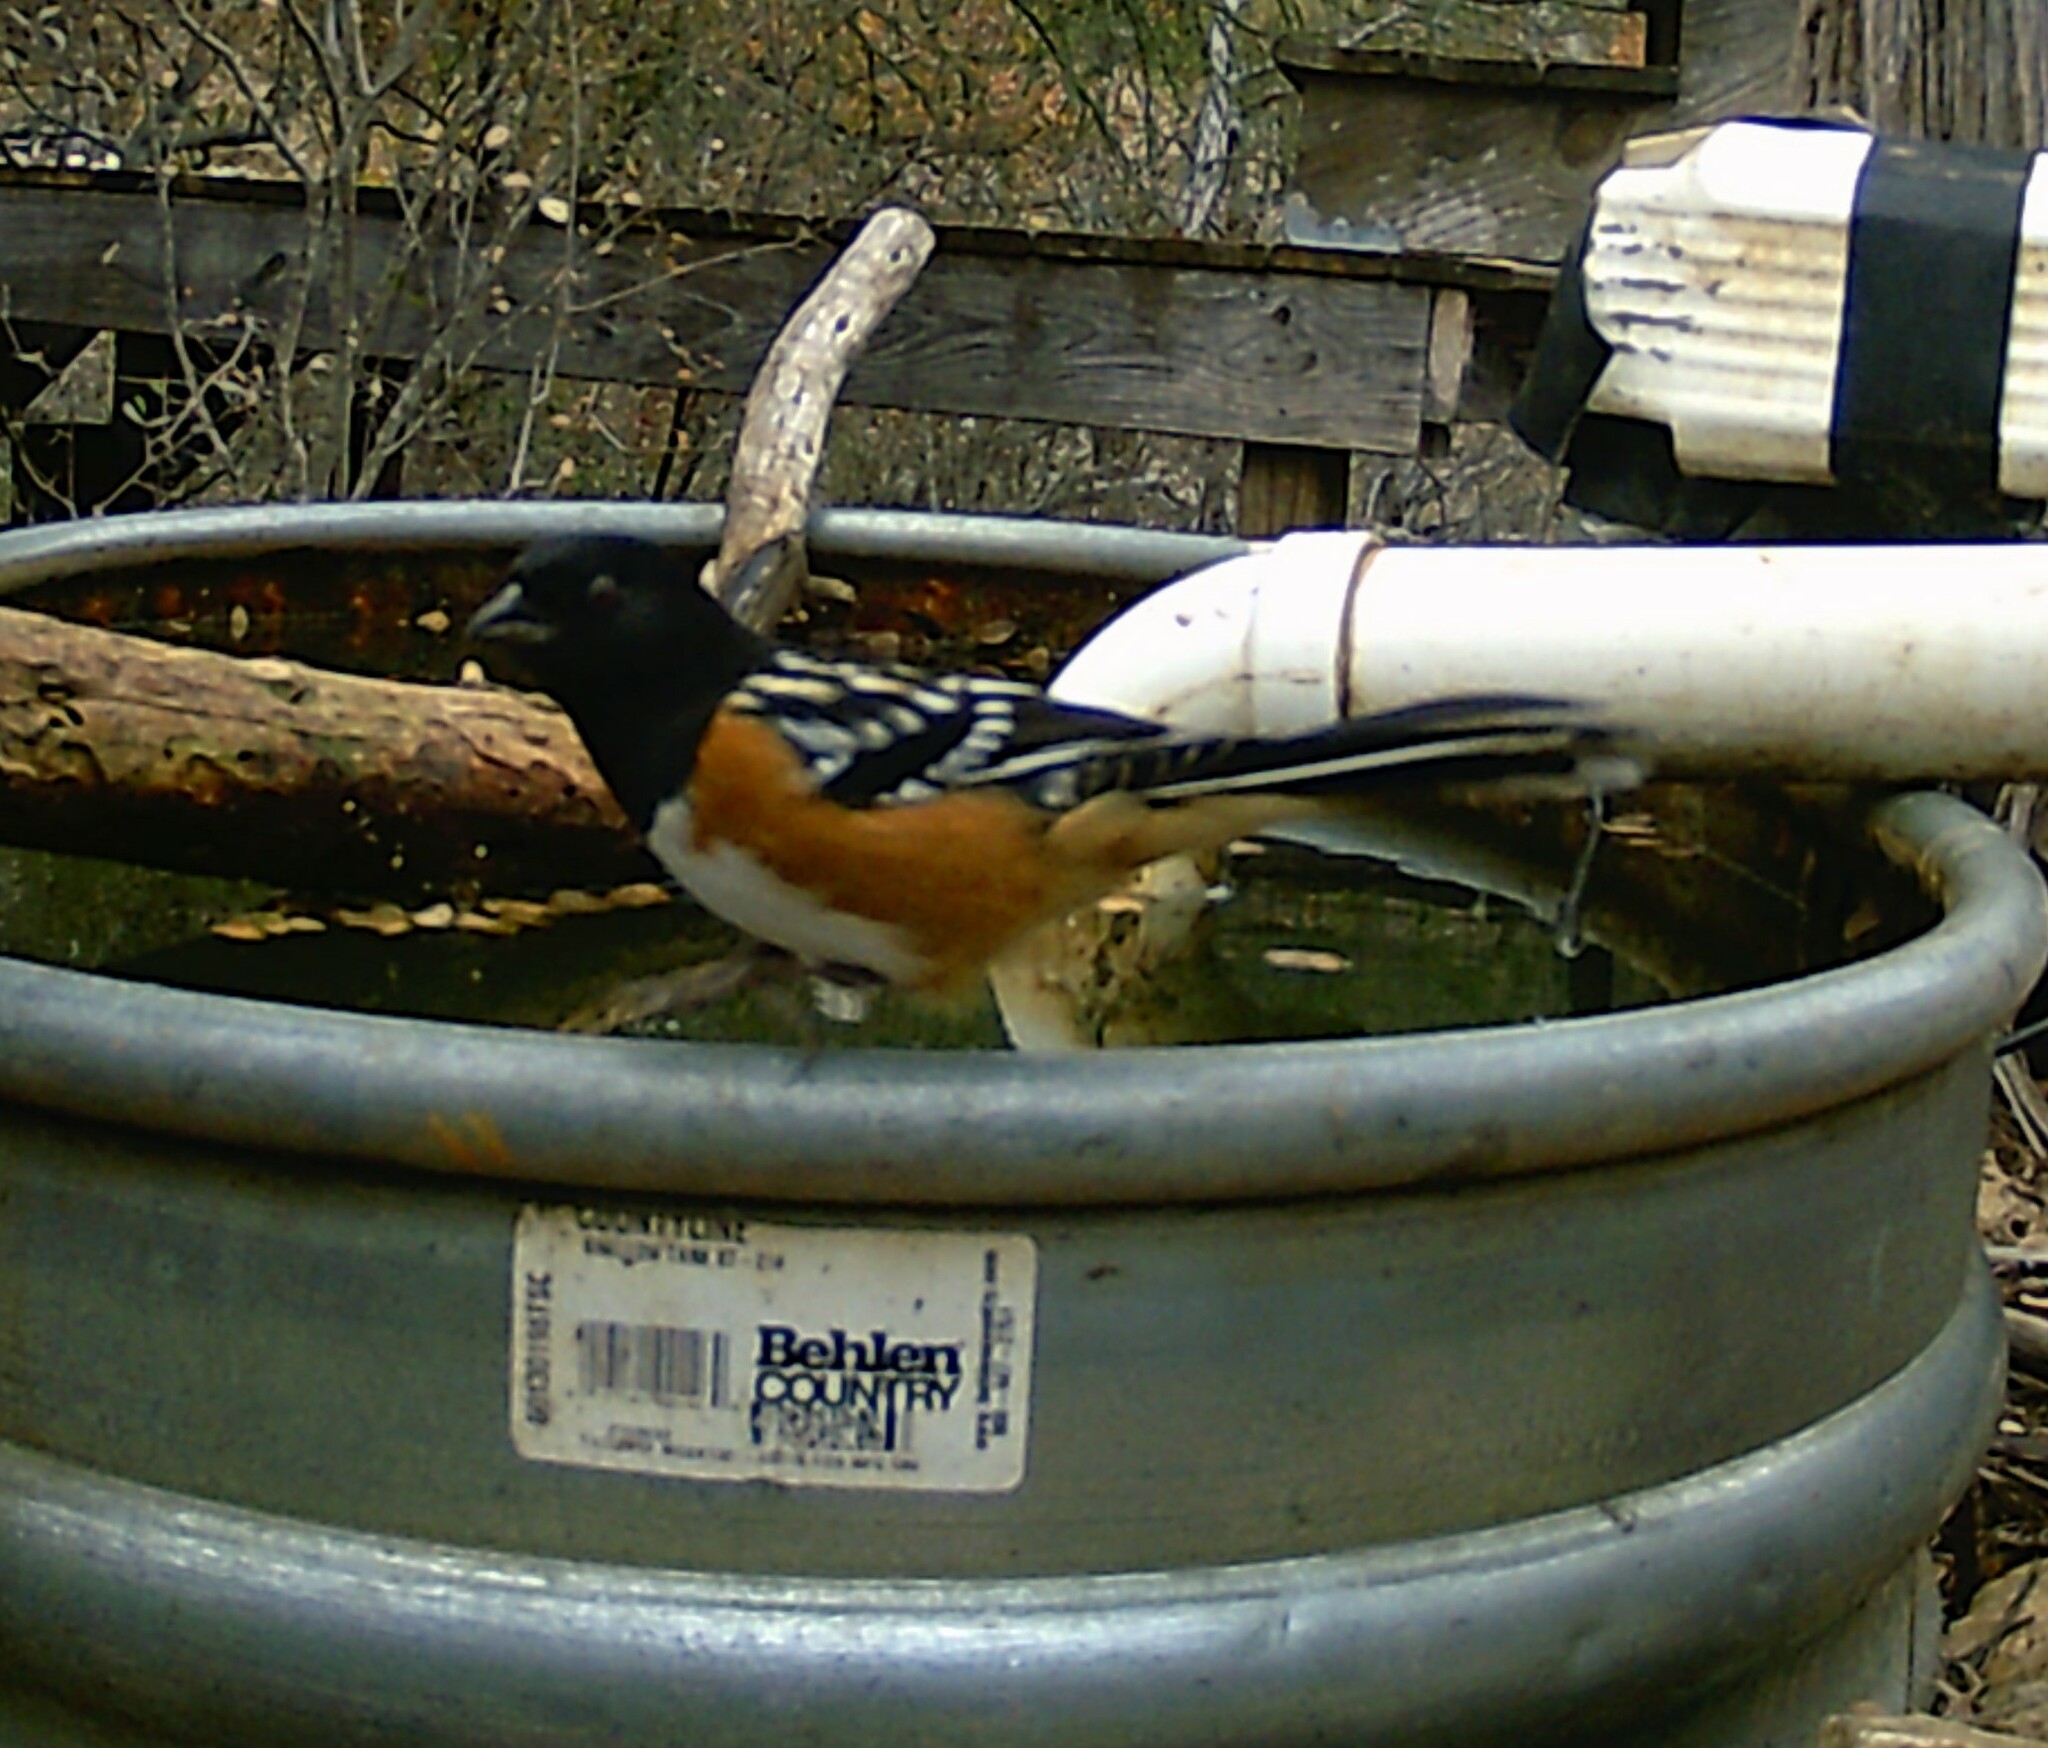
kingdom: Animalia
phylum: Chordata
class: Aves
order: Passeriformes
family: Passerellidae
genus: Pipilo
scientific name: Pipilo maculatus
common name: Spotted towhee
